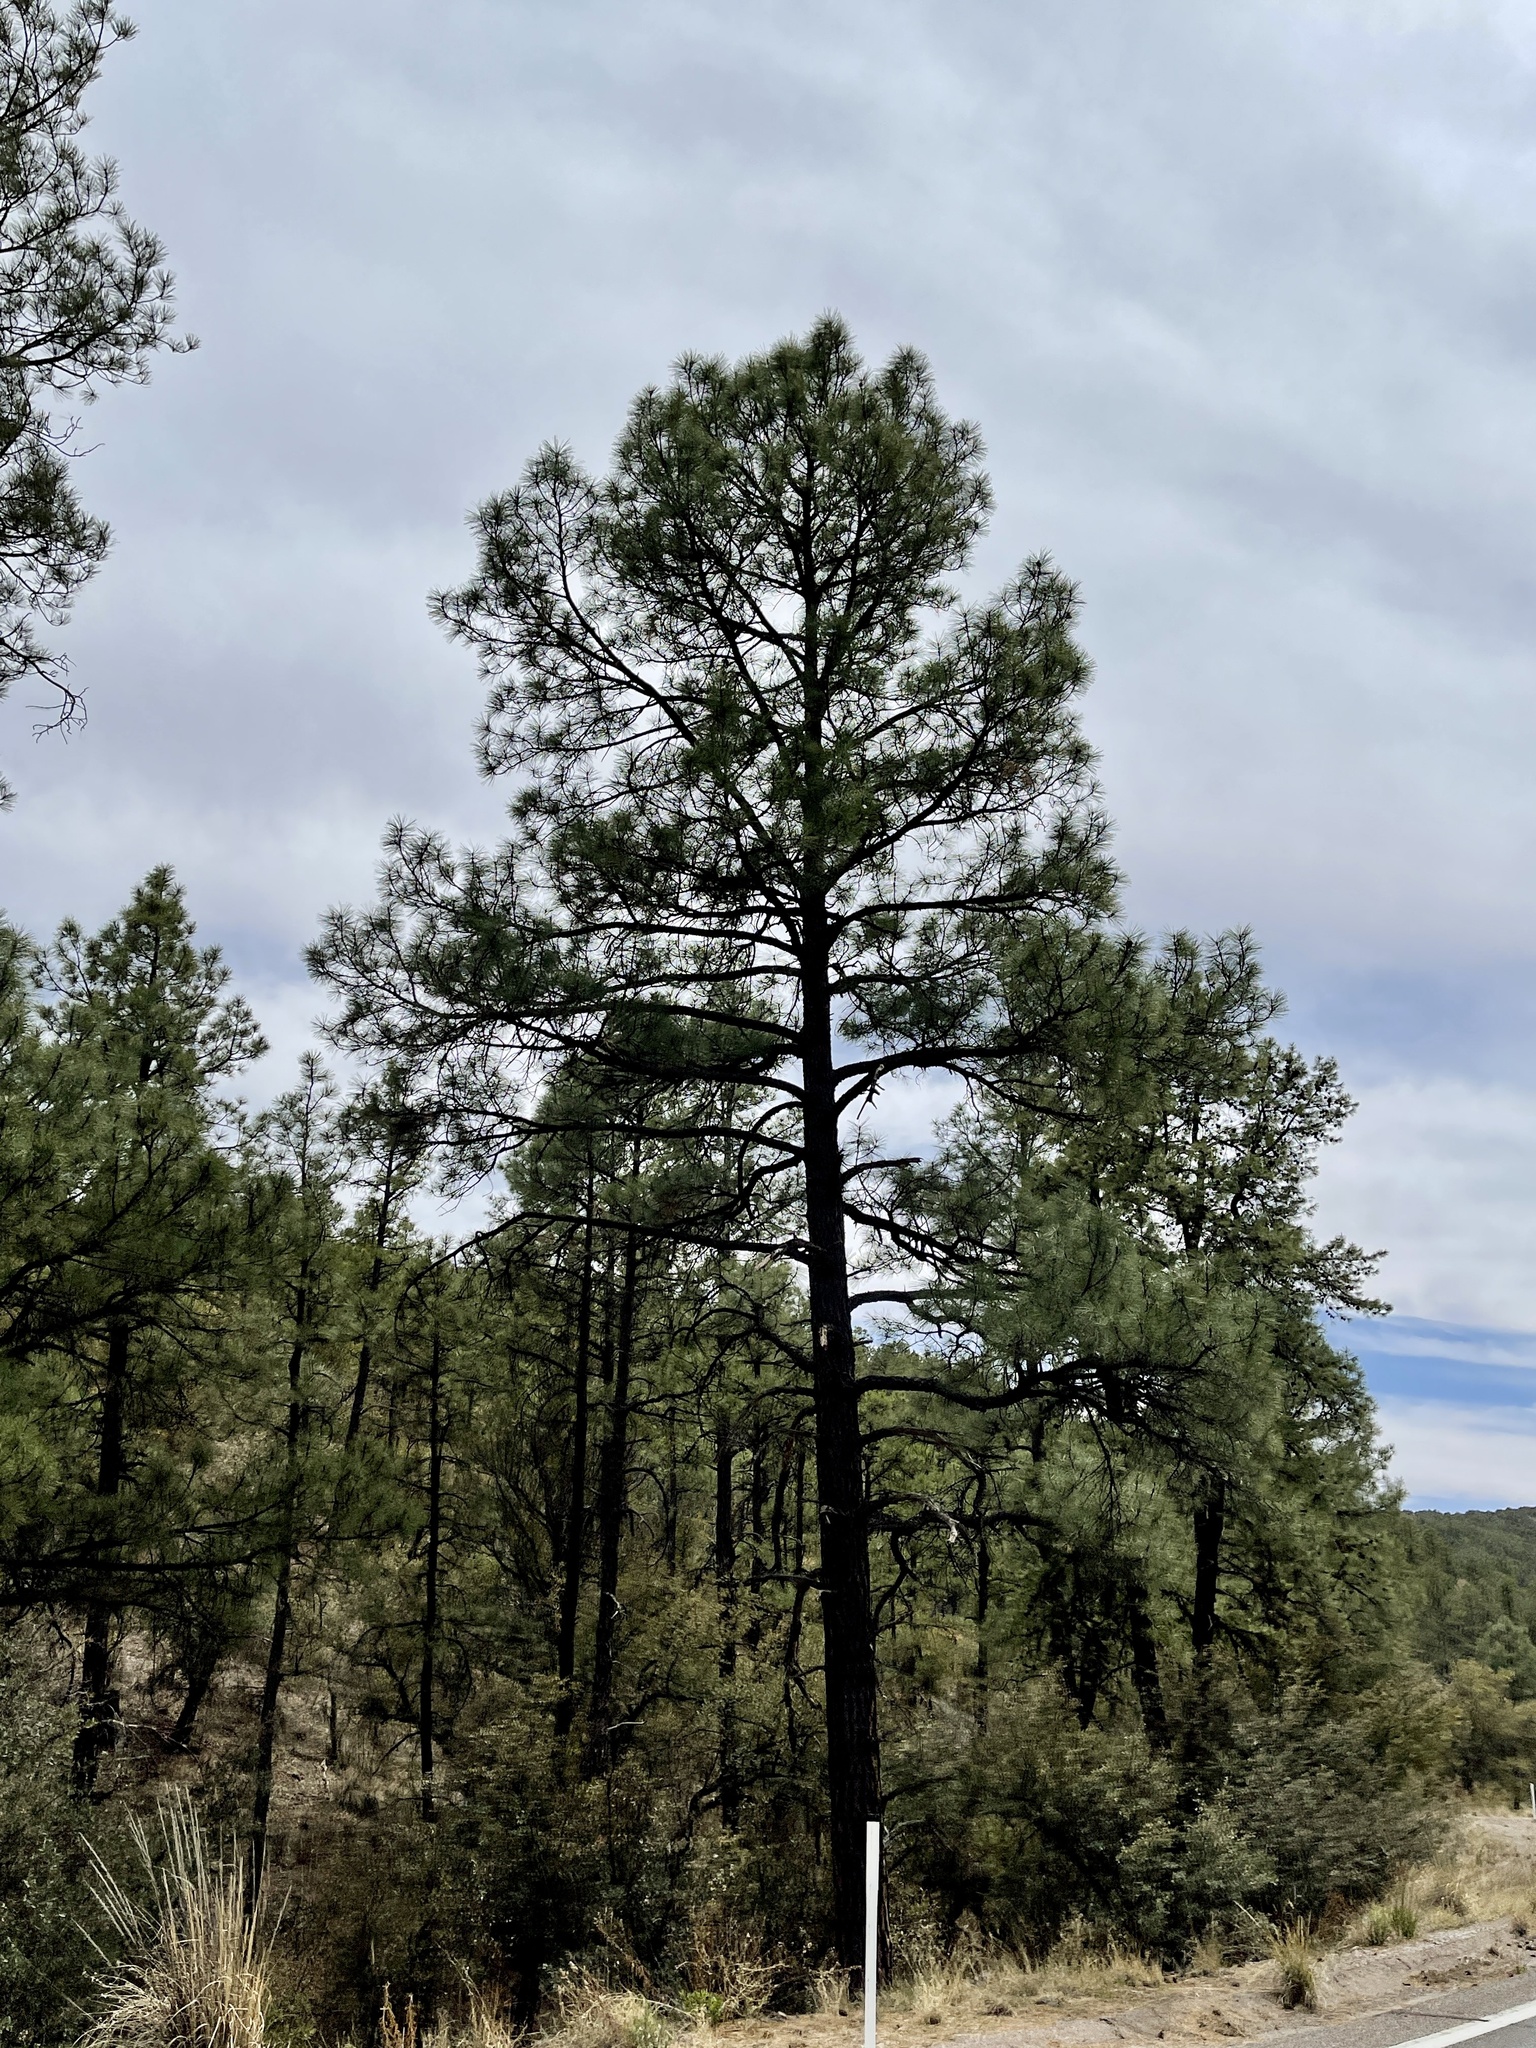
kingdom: Plantae
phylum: Tracheophyta
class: Pinopsida
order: Pinales
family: Pinaceae
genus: Pinus
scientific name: Pinus ponderosa
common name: Western yellow-pine
